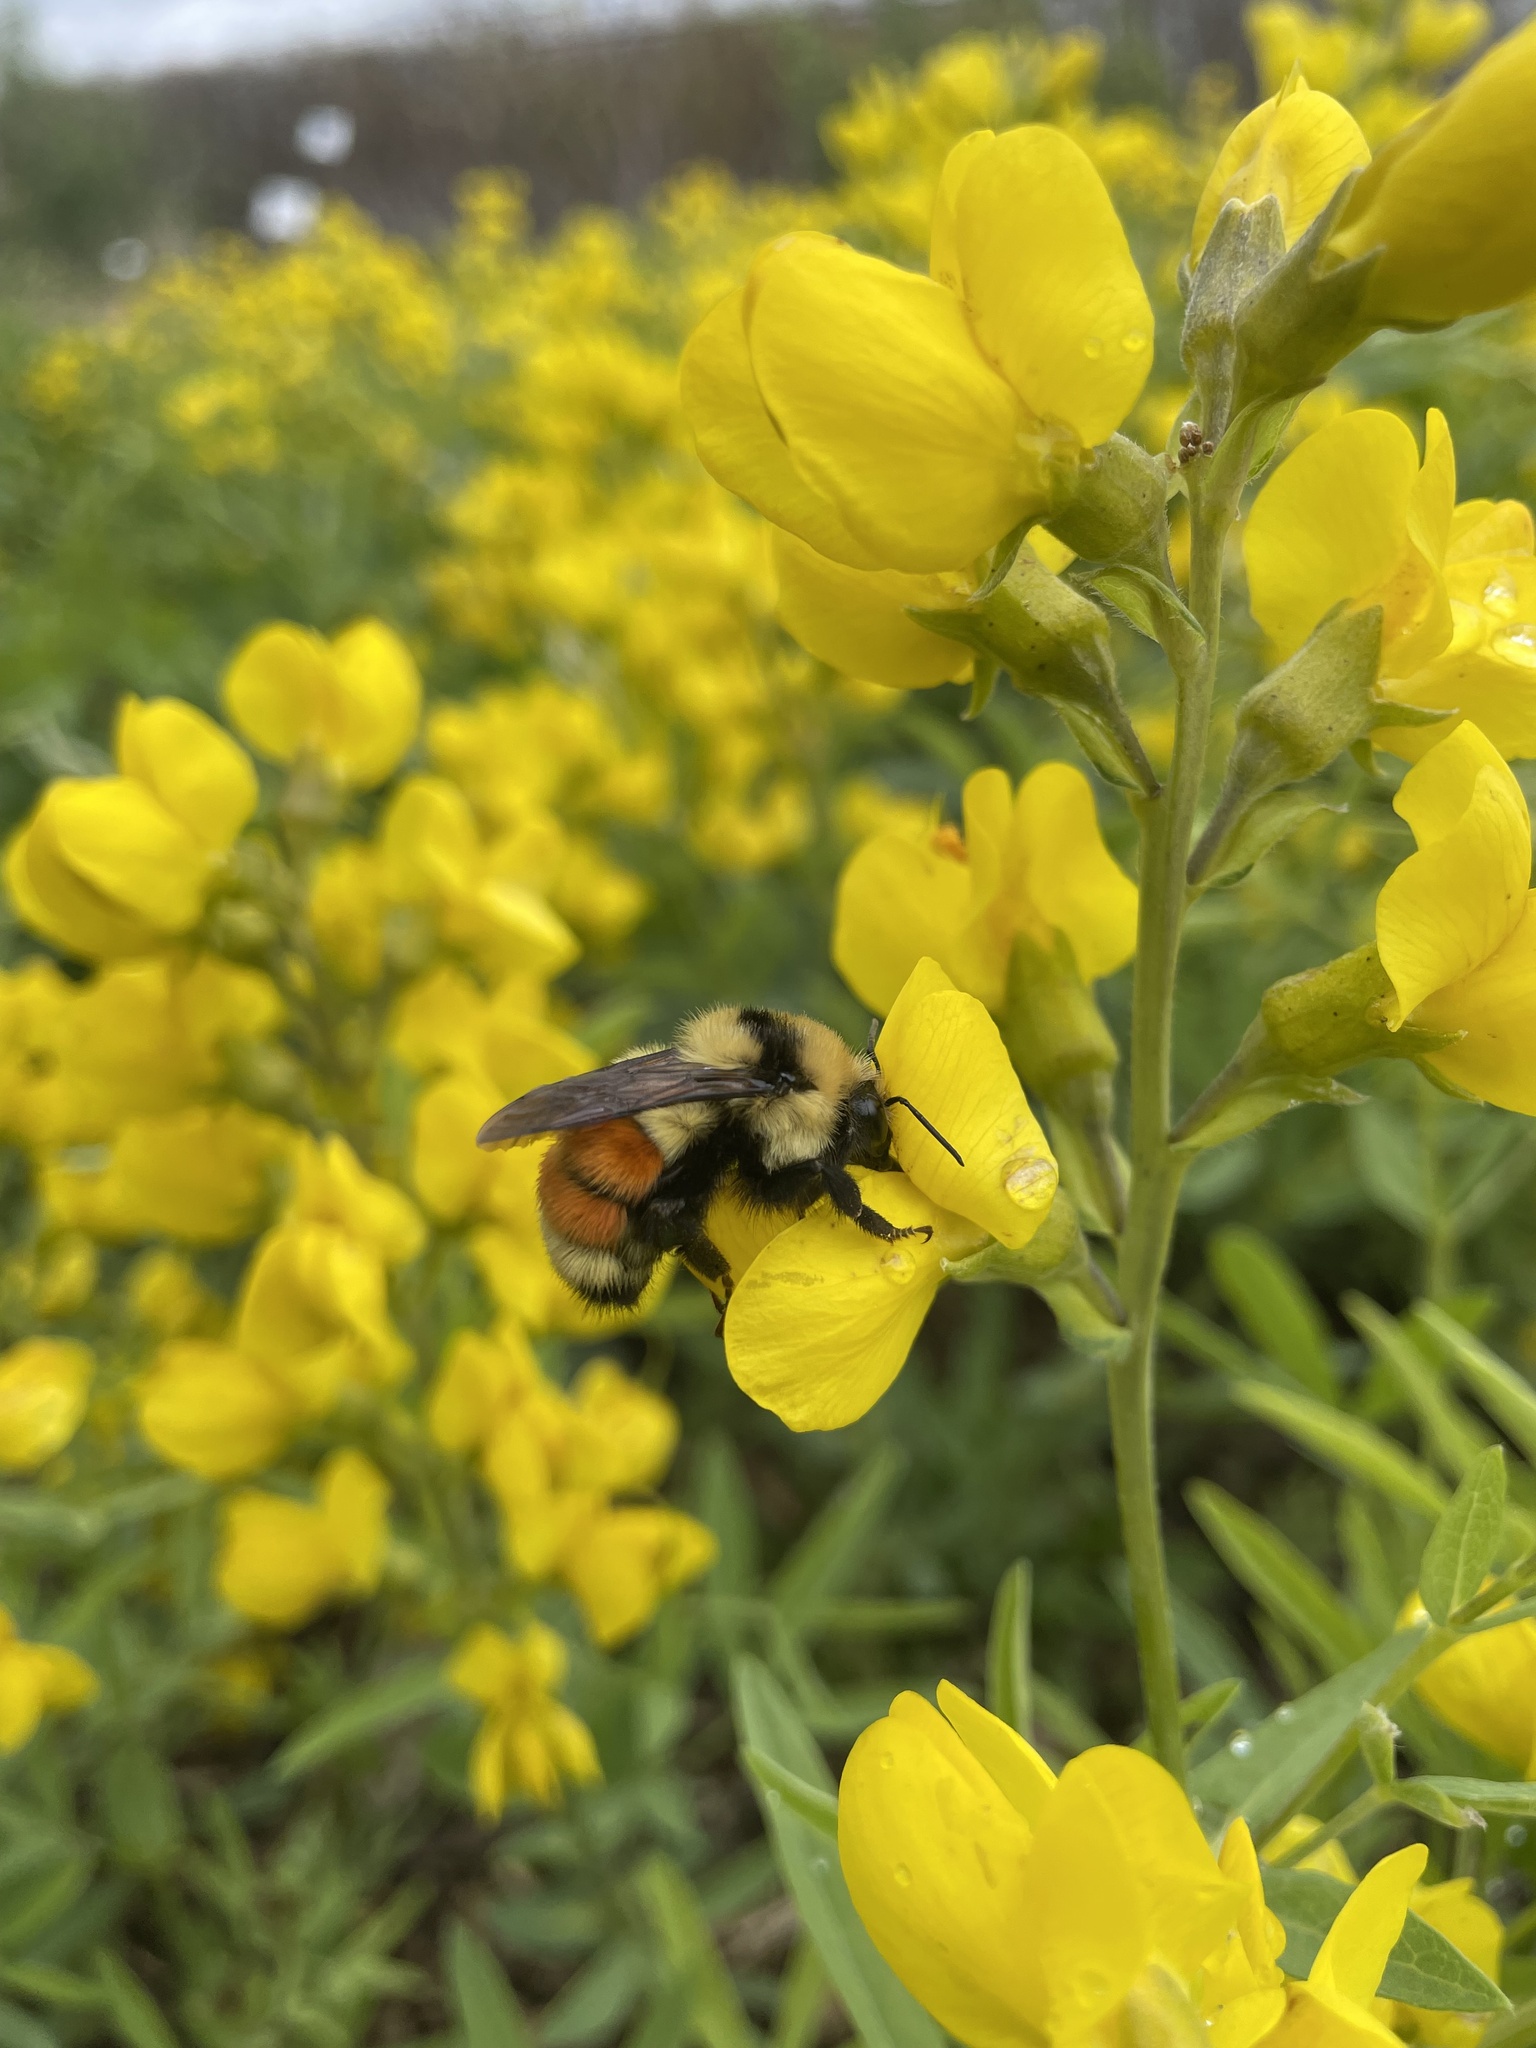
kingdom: Animalia
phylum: Arthropoda
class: Insecta
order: Hymenoptera
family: Apidae
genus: Bombus
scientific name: Bombus huntii
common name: Hunt bumble bee
